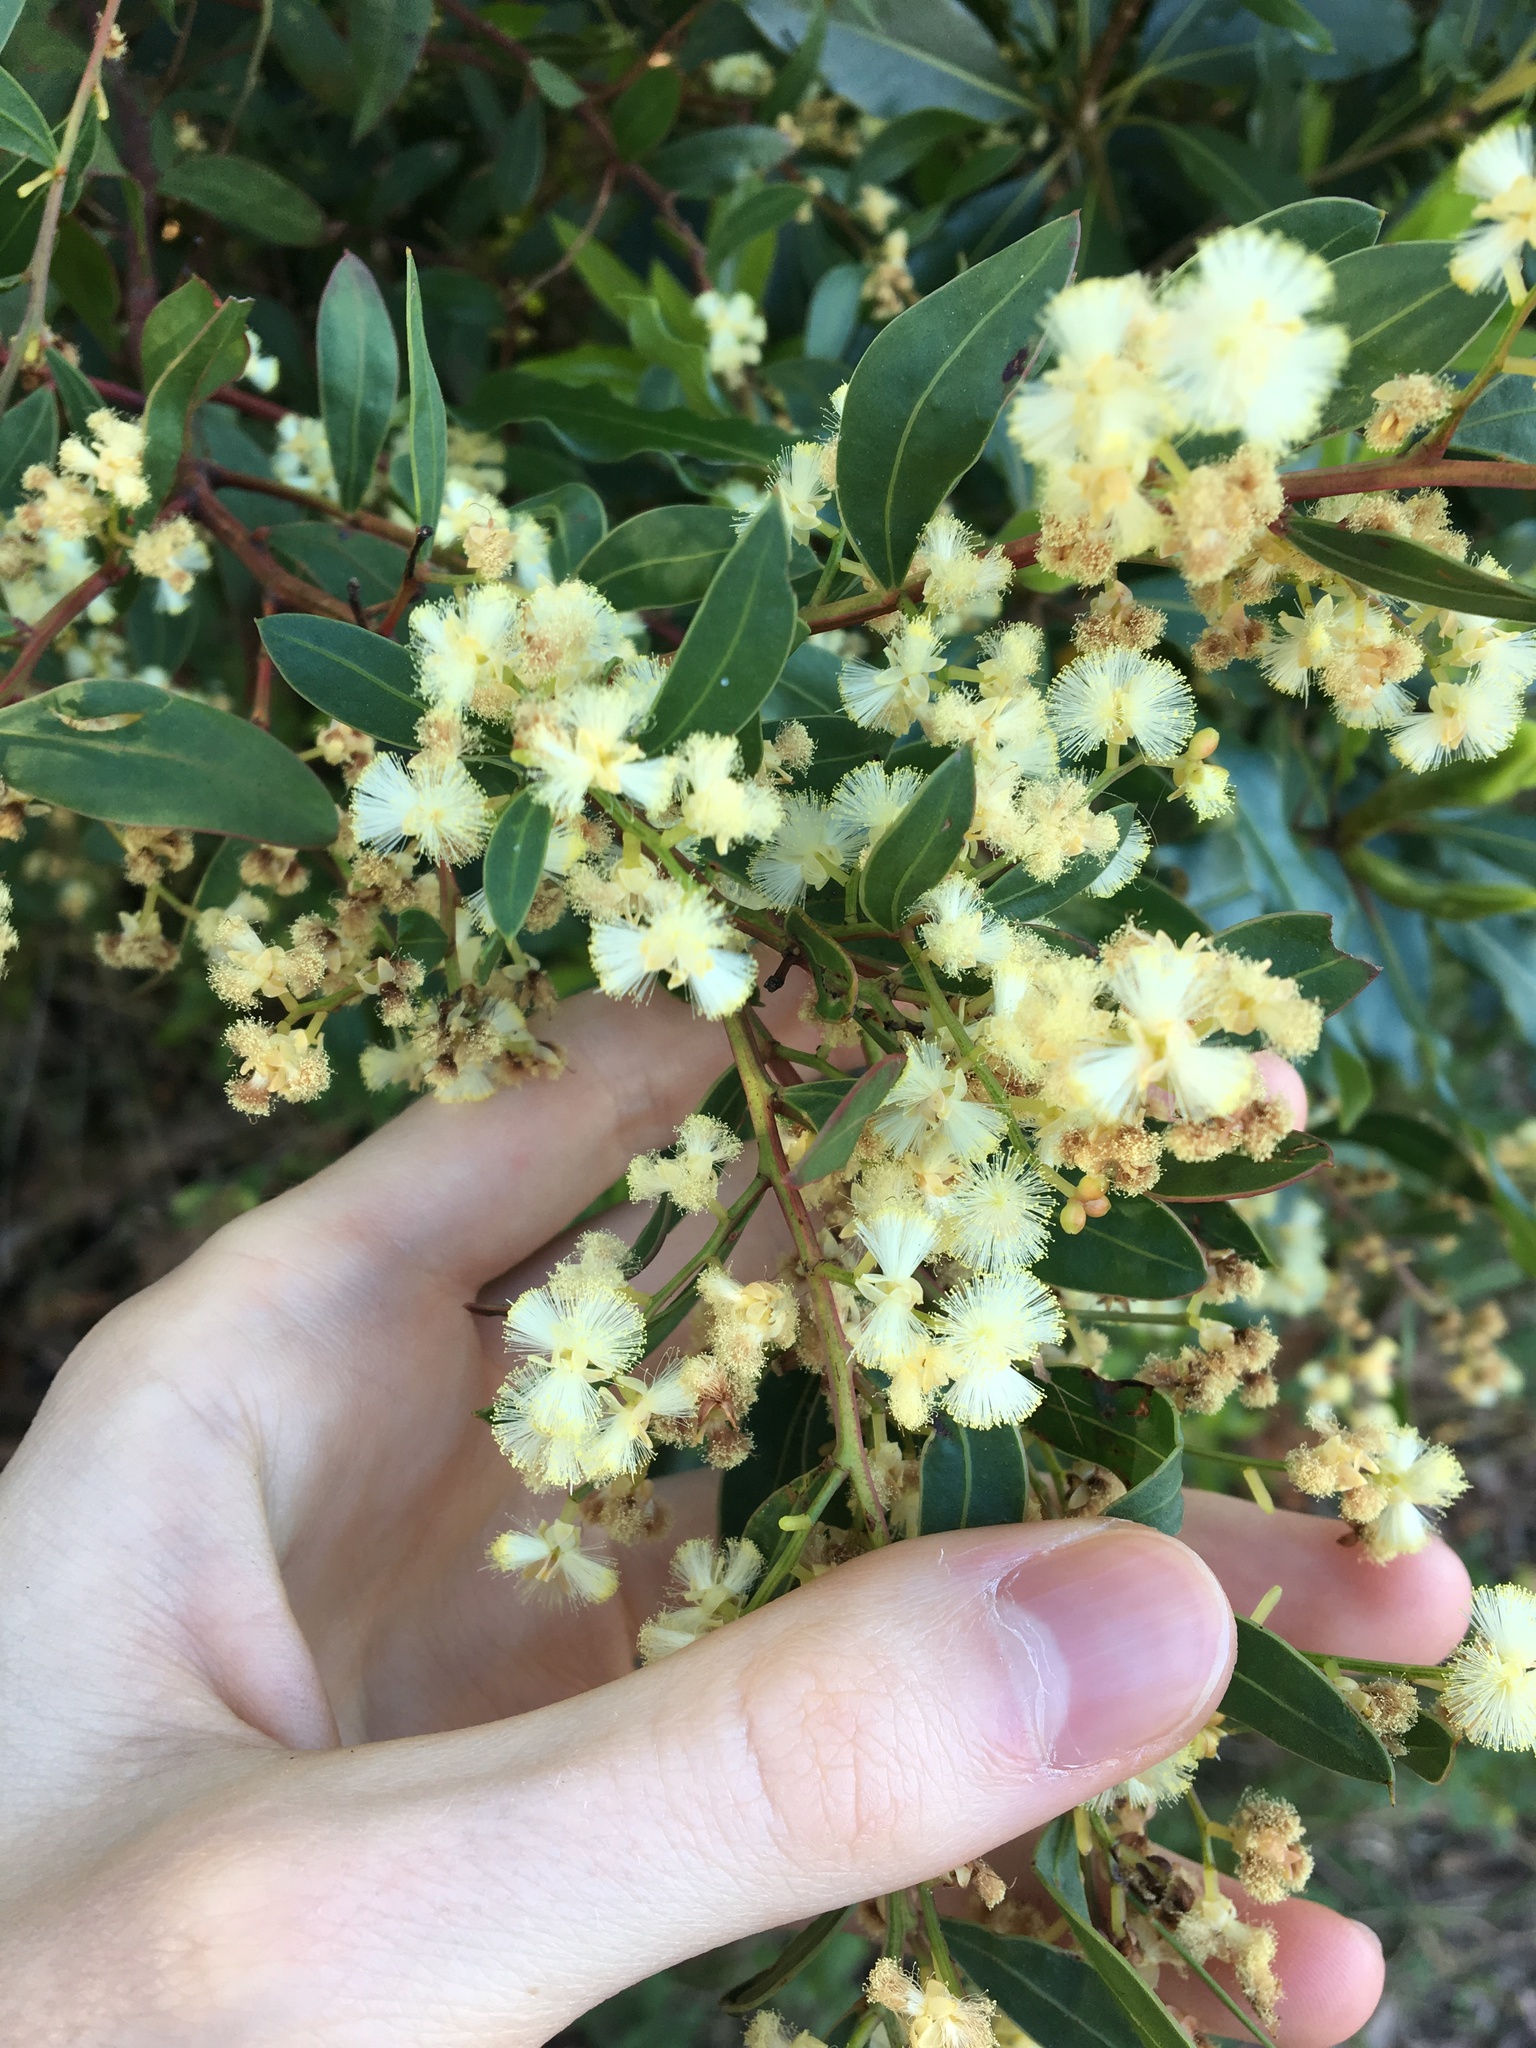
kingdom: Plantae
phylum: Tracheophyta
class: Magnoliopsida
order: Fabales
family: Fabaceae
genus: Acacia
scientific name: Acacia myrtifolia
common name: Myrtle wattle
